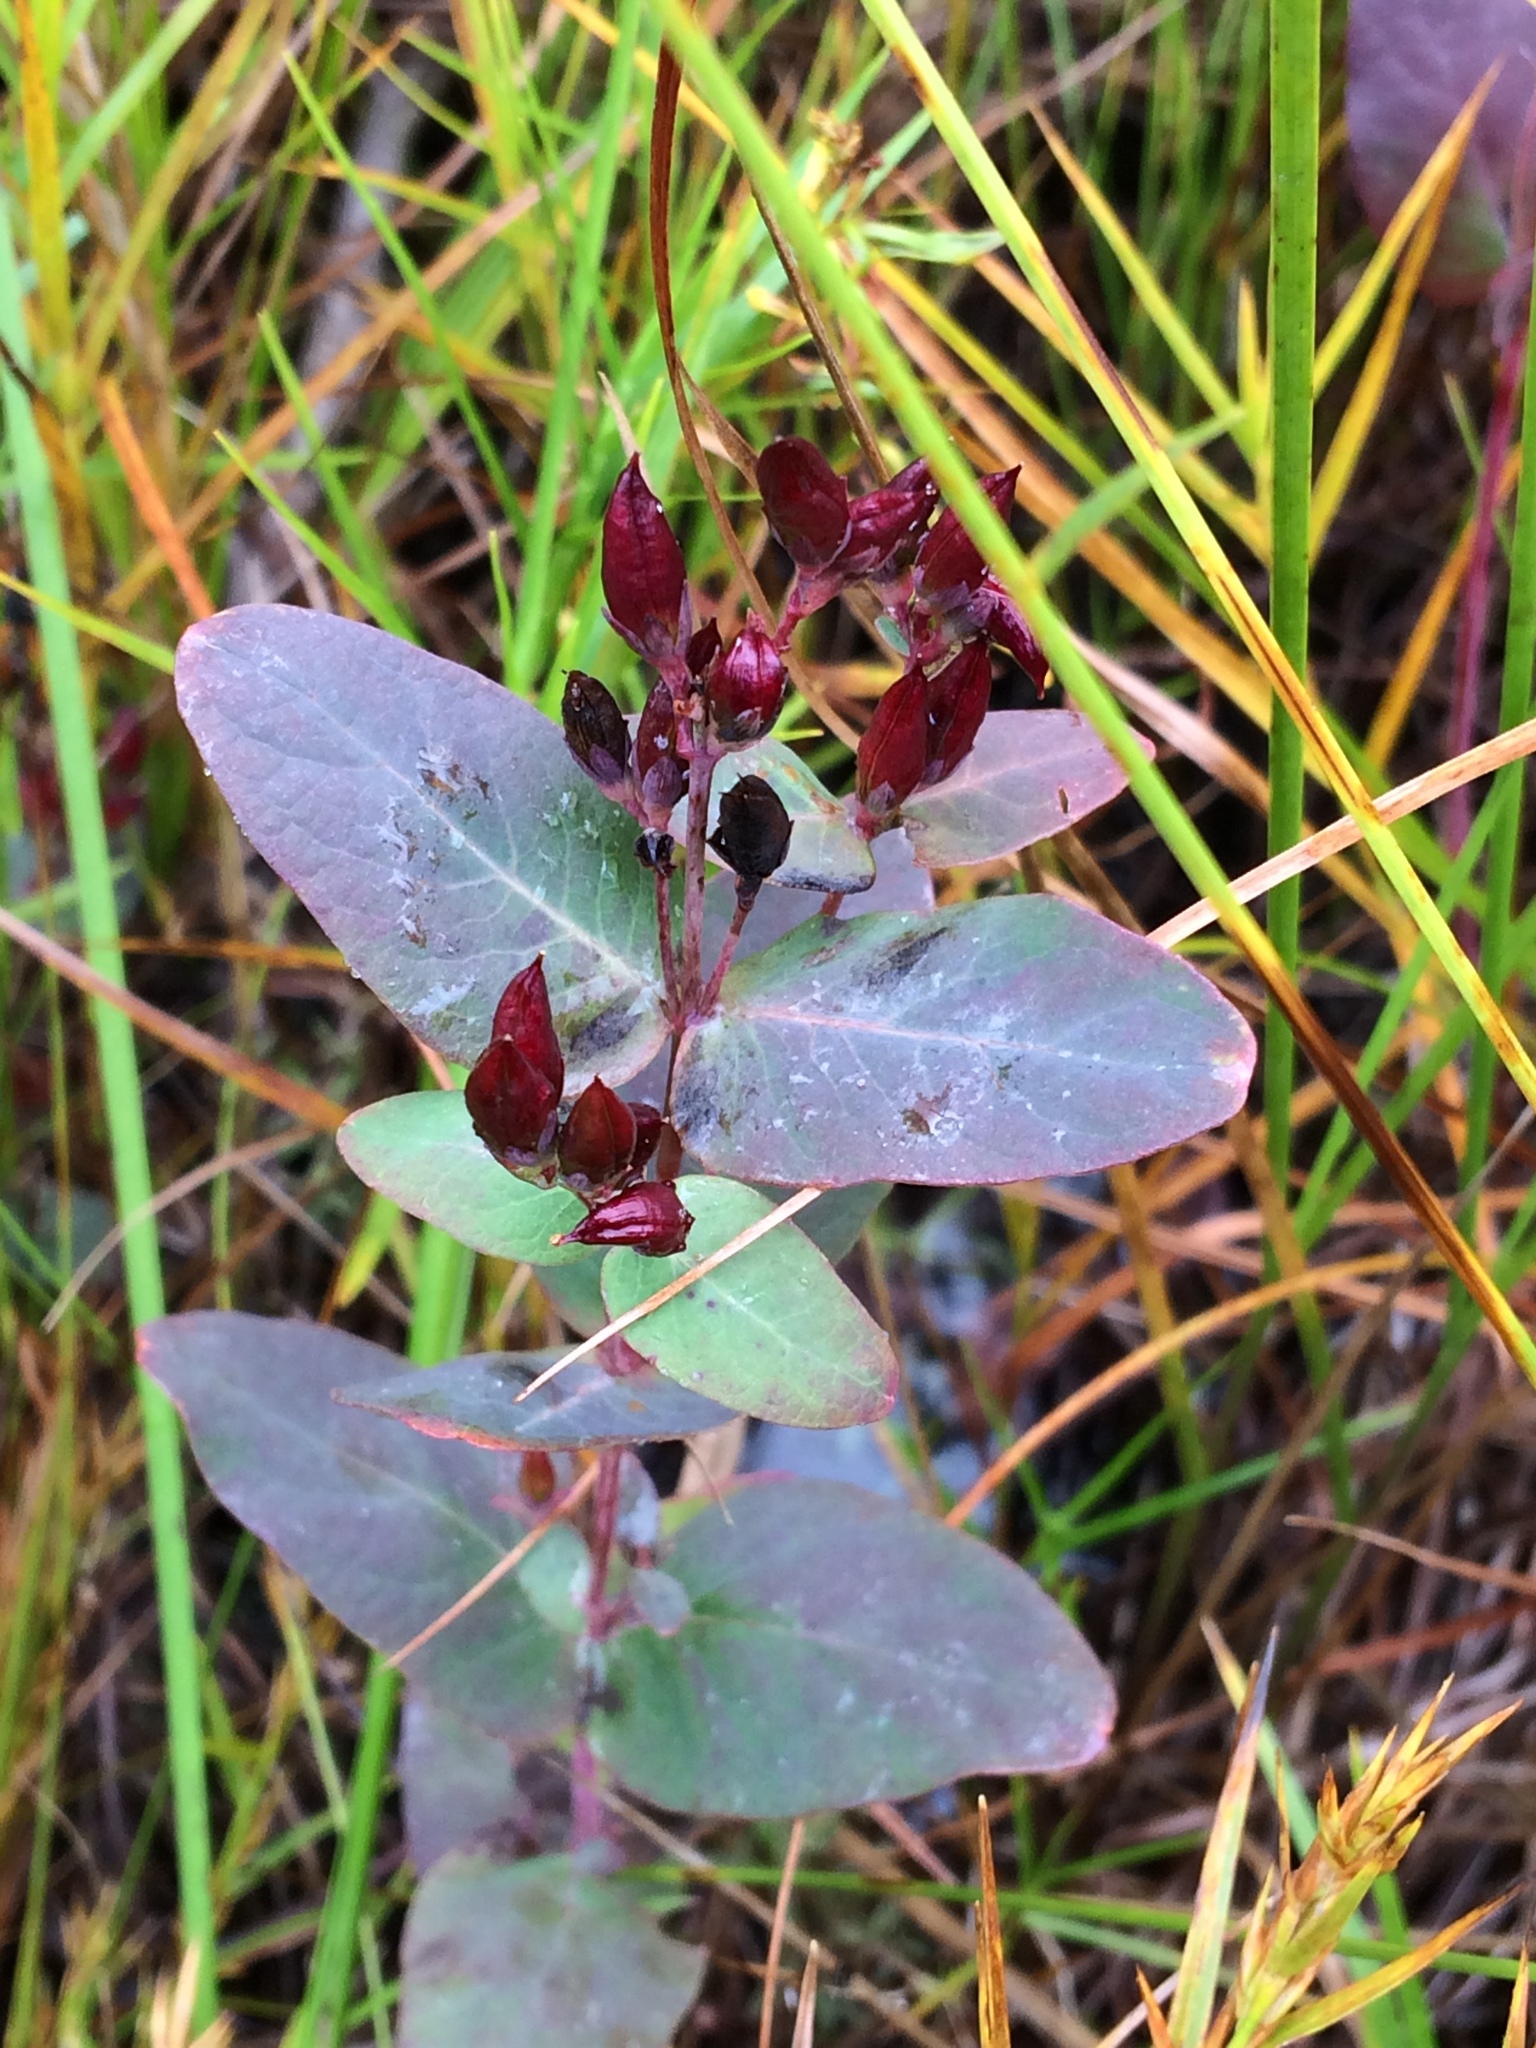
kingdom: Plantae
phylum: Tracheophyta
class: Magnoliopsida
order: Malpighiales
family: Hypericaceae
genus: Triadenum
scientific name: Triadenum virginicum
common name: Marsh st. john's-wort
